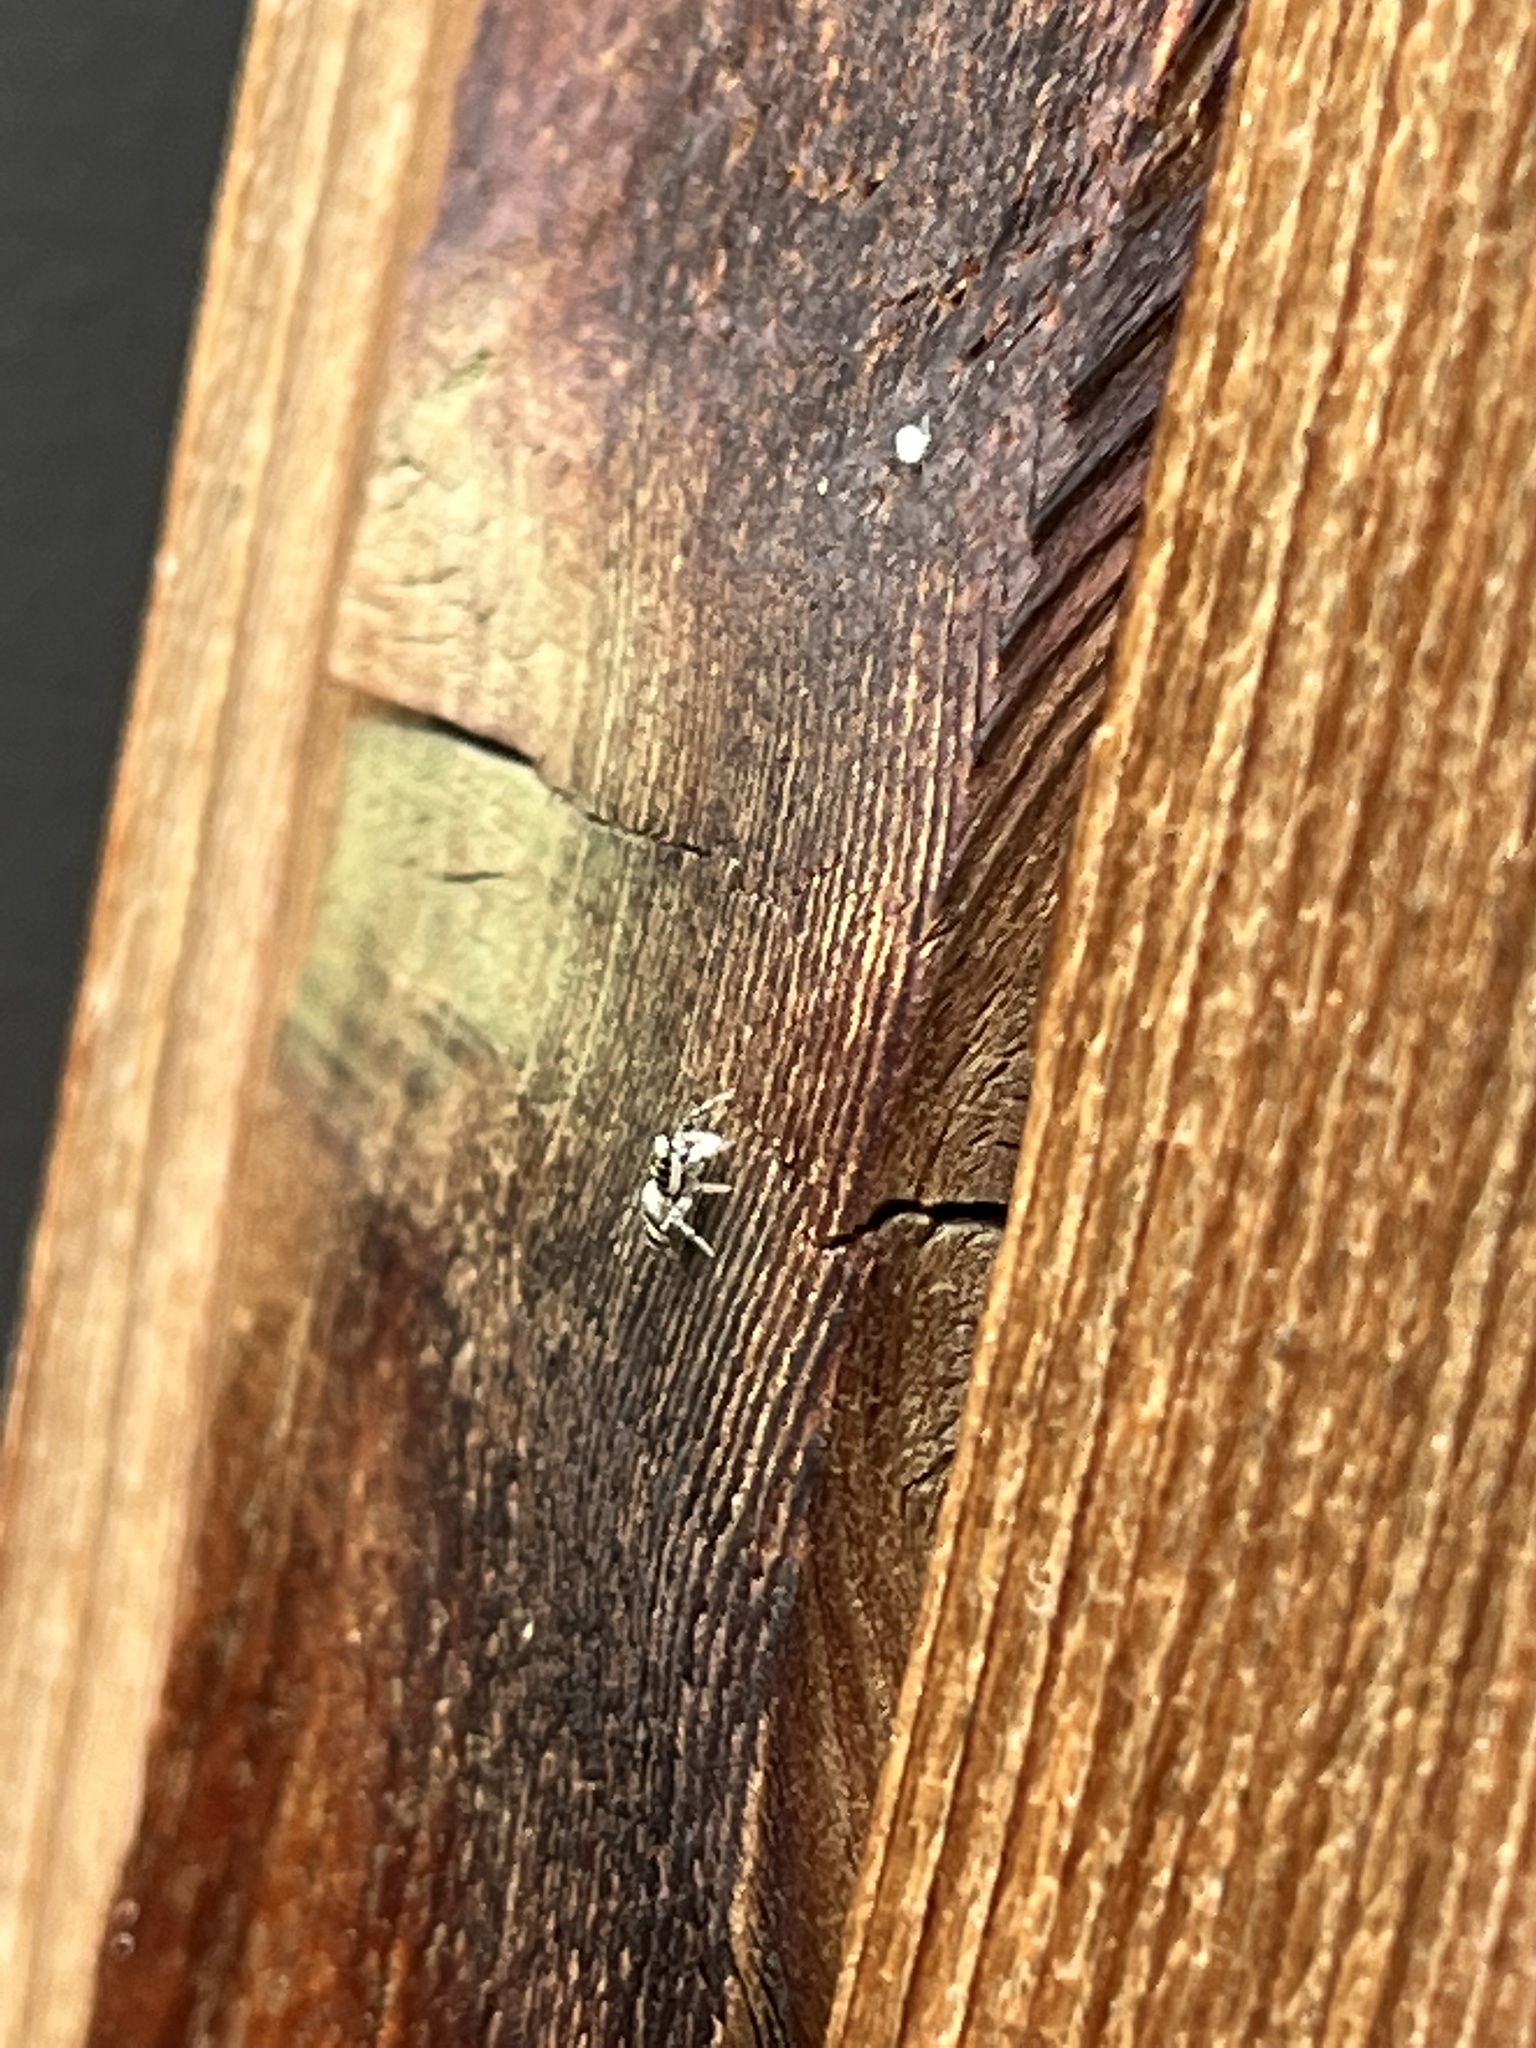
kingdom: Animalia
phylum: Arthropoda
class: Arachnida
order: Araneae
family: Salticidae
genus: Salticus
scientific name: Salticus scenicus
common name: Zebra jumper
